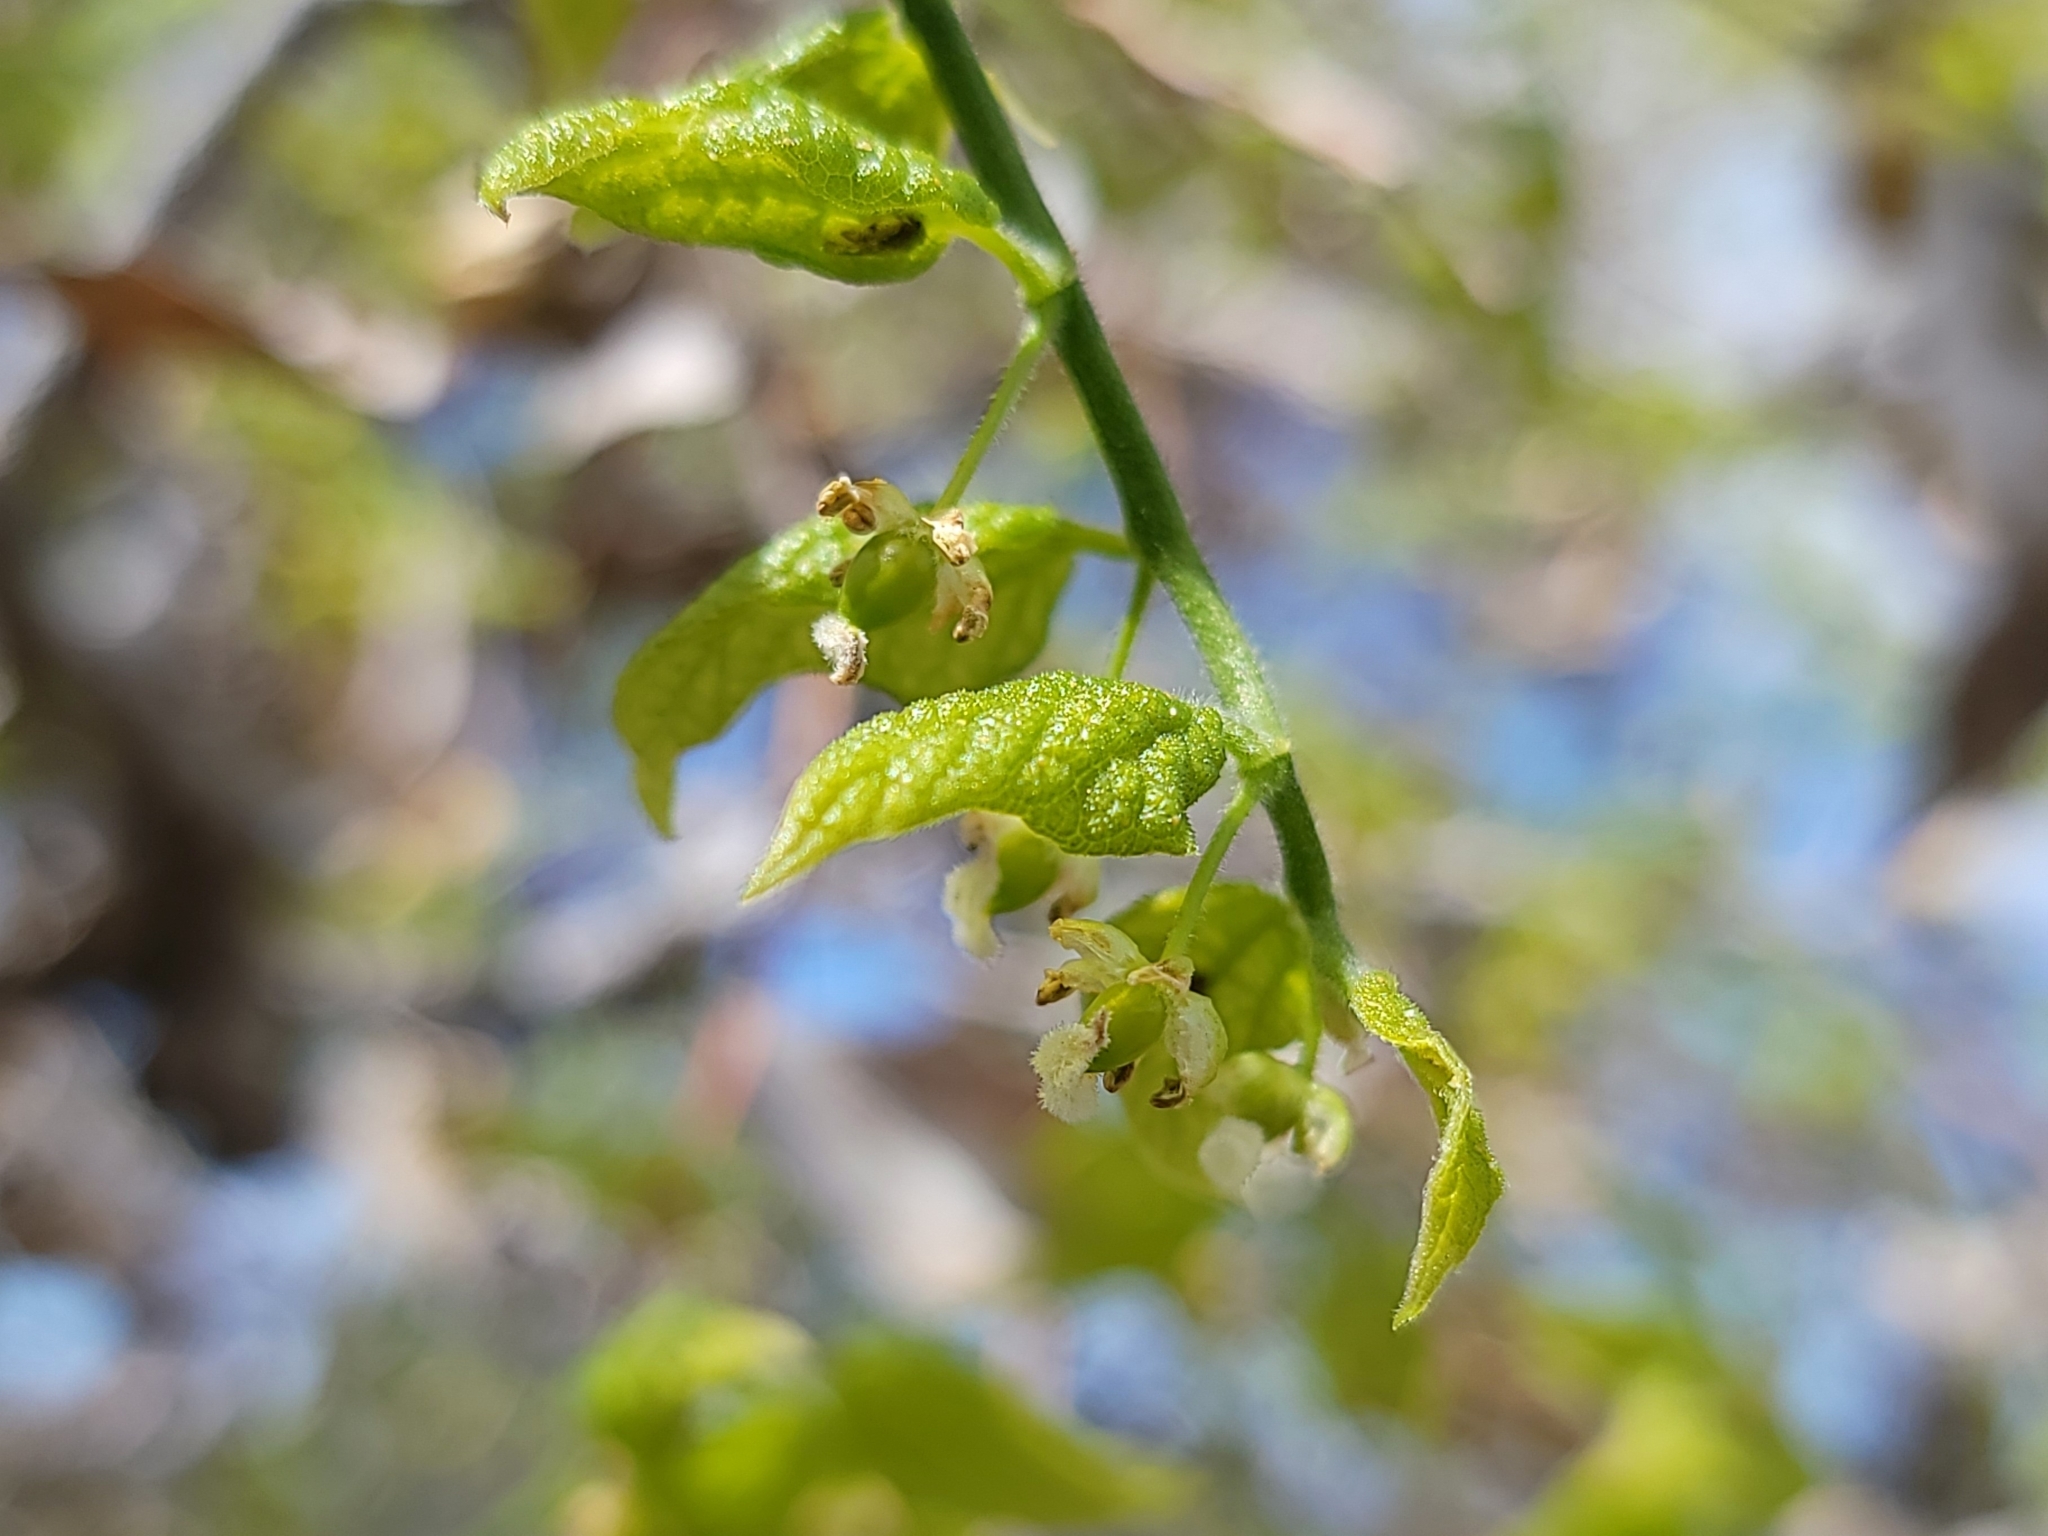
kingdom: Plantae
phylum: Tracheophyta
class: Magnoliopsida
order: Rosales
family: Cannabaceae
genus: Celtis
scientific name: Celtis reticulata
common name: Netleaf hackberry
